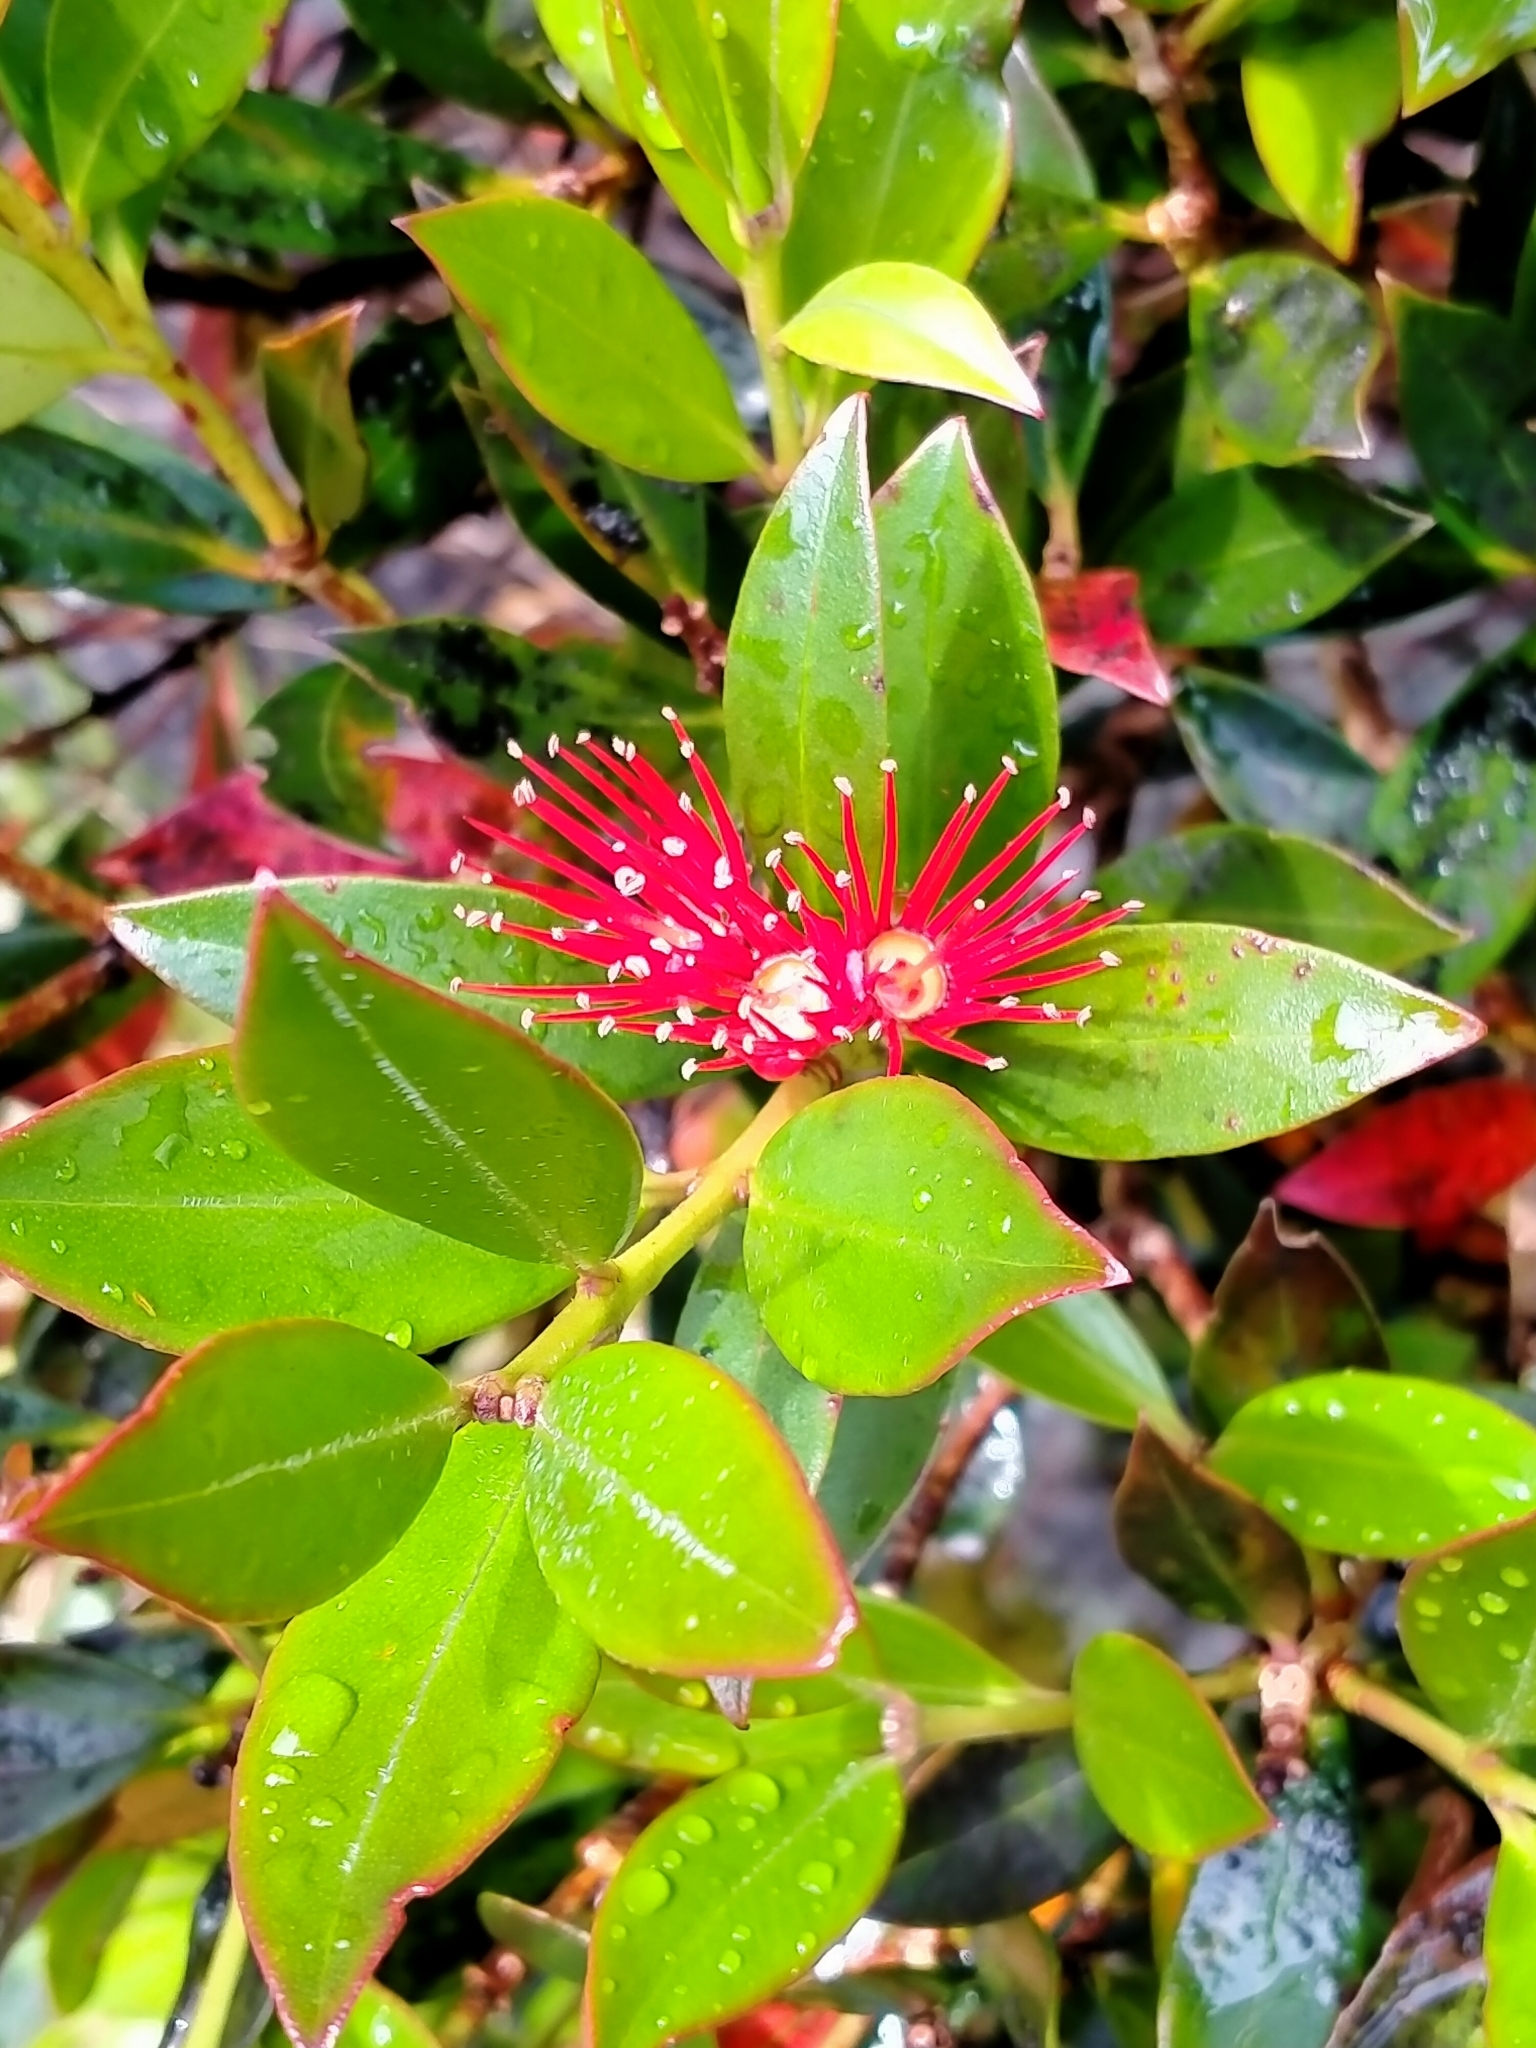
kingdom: Plantae
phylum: Tracheophyta
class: Magnoliopsida
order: Myrtales
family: Myrtaceae
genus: Metrosideros
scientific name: Metrosideros umbellata
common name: Southern rata
